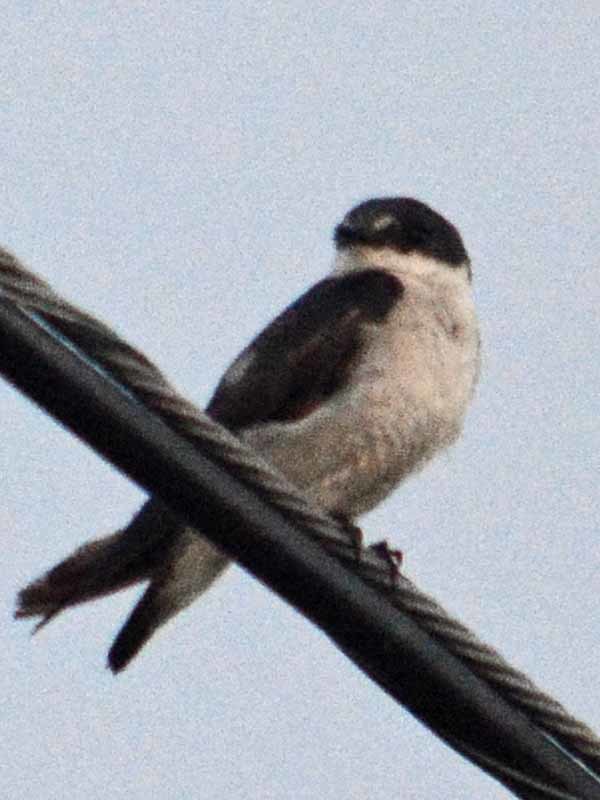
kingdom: Animalia
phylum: Chordata
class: Aves
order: Passeriformes
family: Hirundinidae
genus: Tachycineta
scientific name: Tachycineta albilinea
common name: Mangrove swallow
